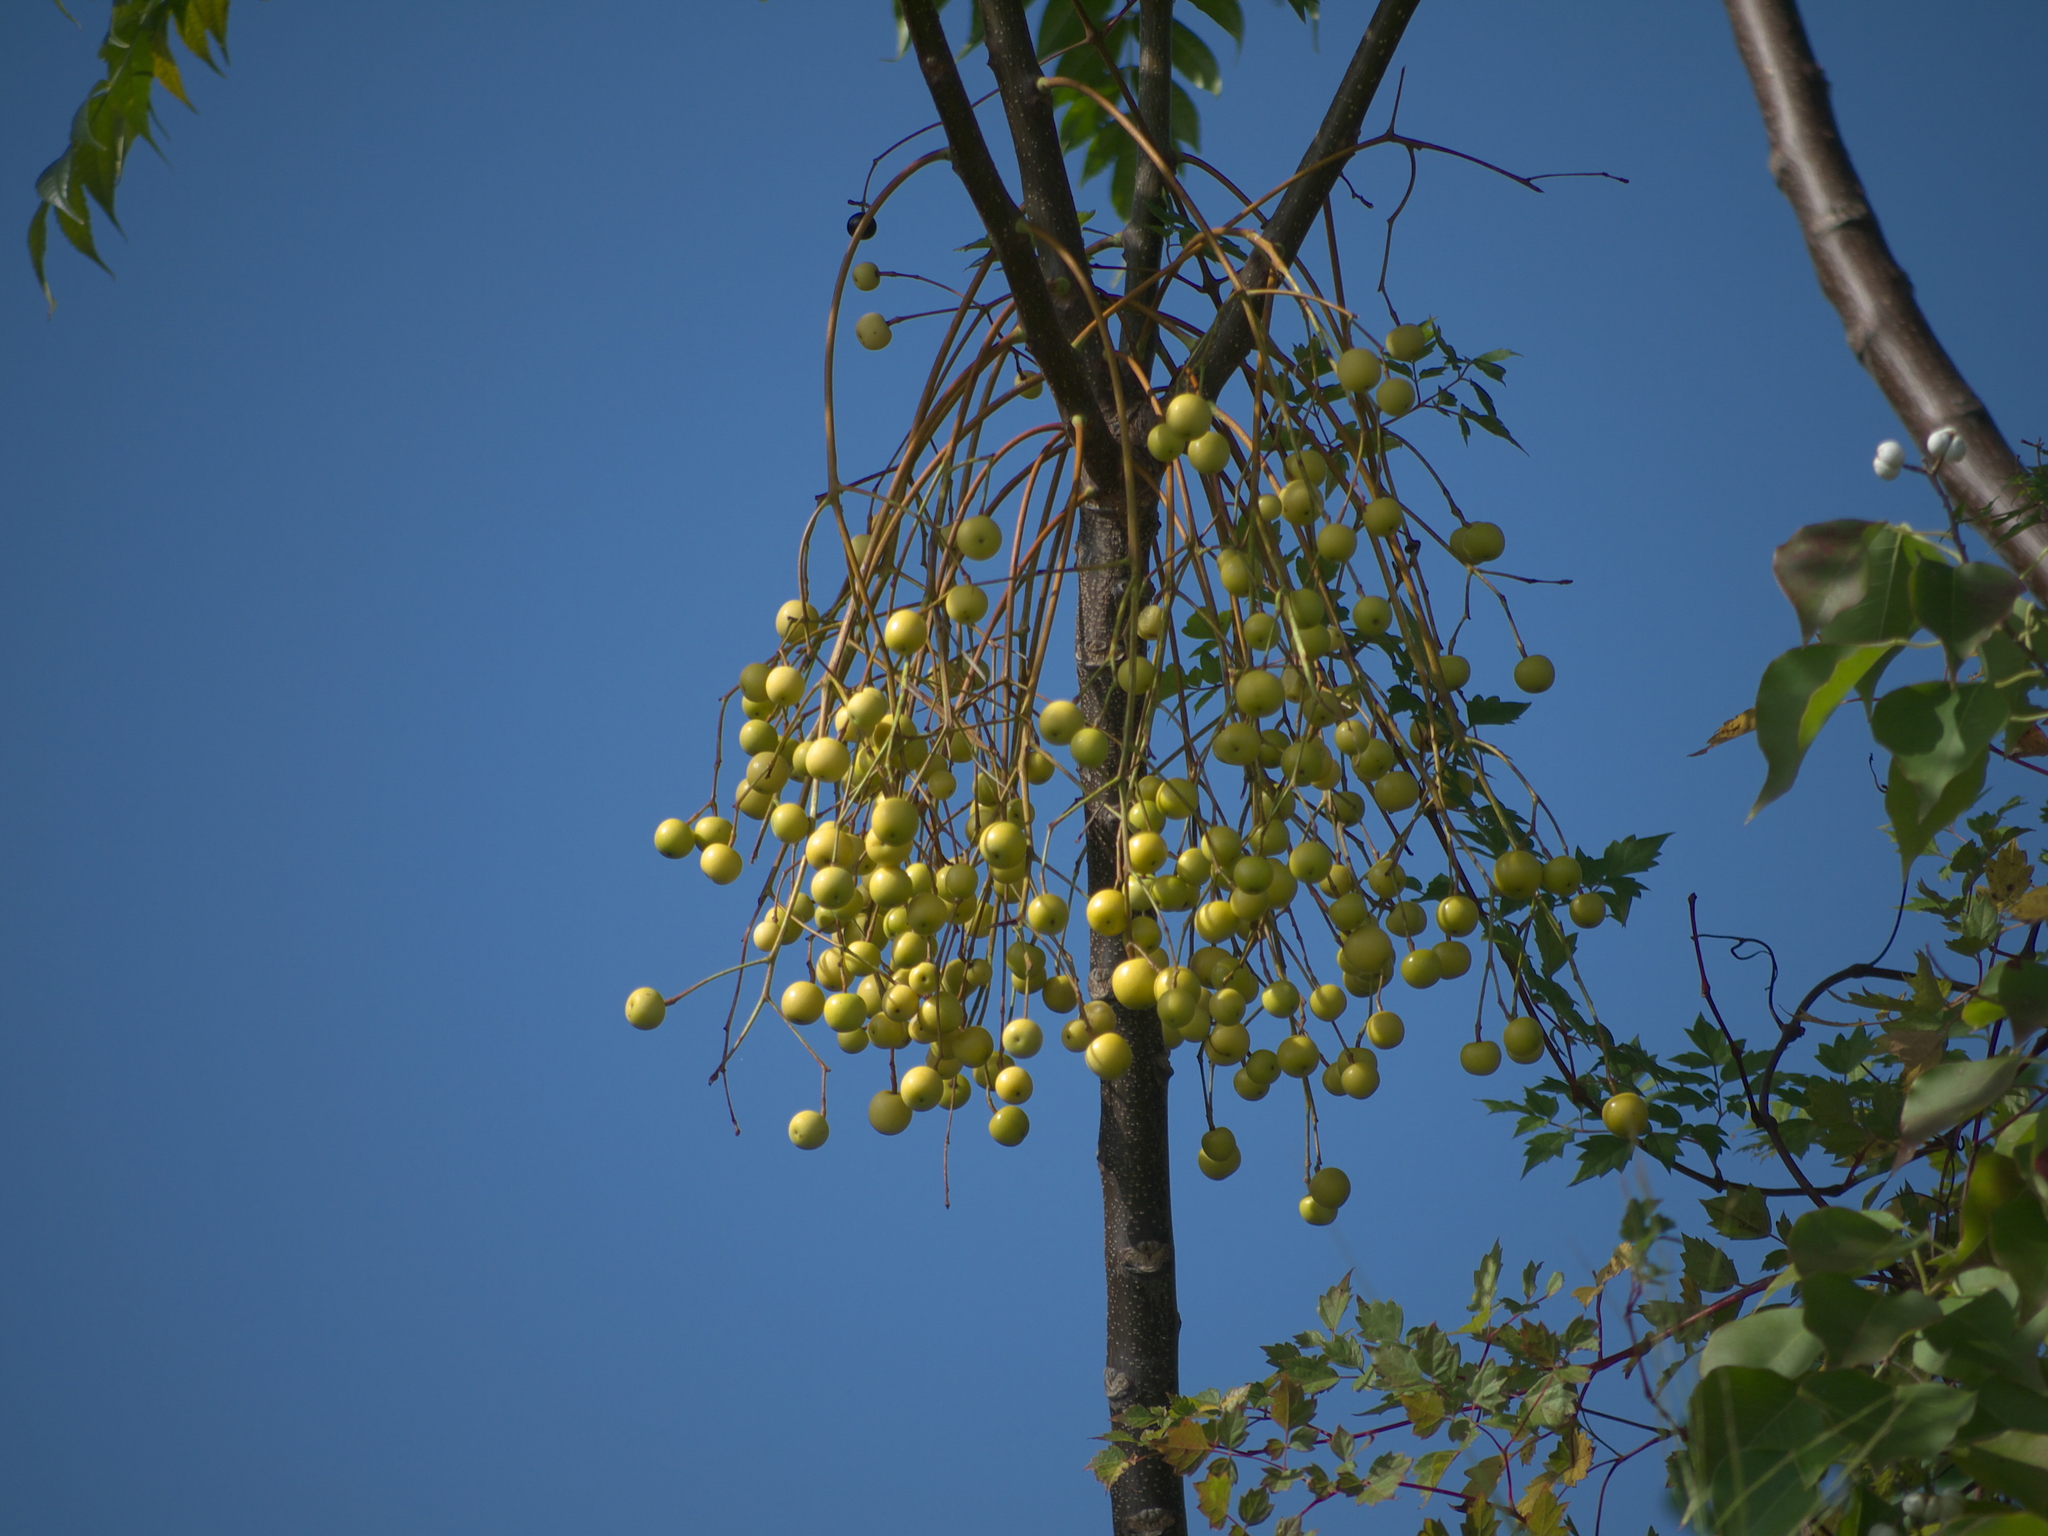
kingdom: Plantae
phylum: Tracheophyta
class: Magnoliopsida
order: Sapindales
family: Meliaceae
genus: Melia
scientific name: Melia azedarach
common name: Chinaberrytree
